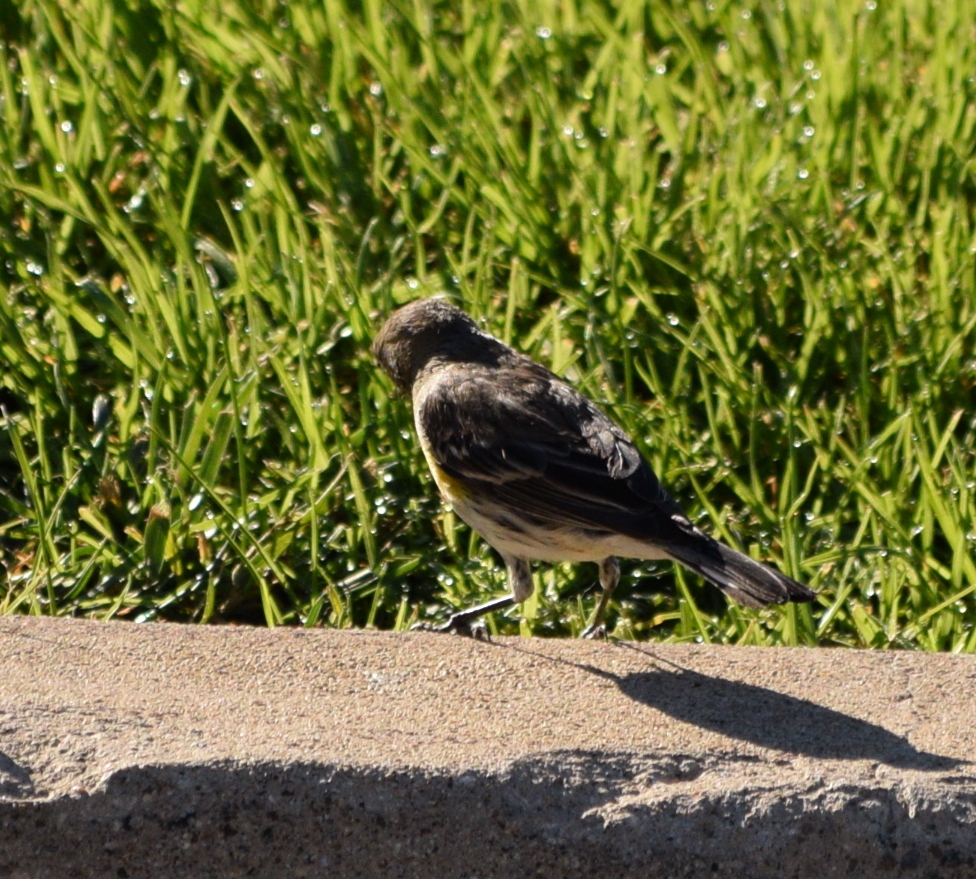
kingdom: Animalia
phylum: Chordata
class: Aves
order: Passeriformes
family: Parulidae
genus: Setophaga
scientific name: Setophaga coronata
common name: Myrtle warbler
